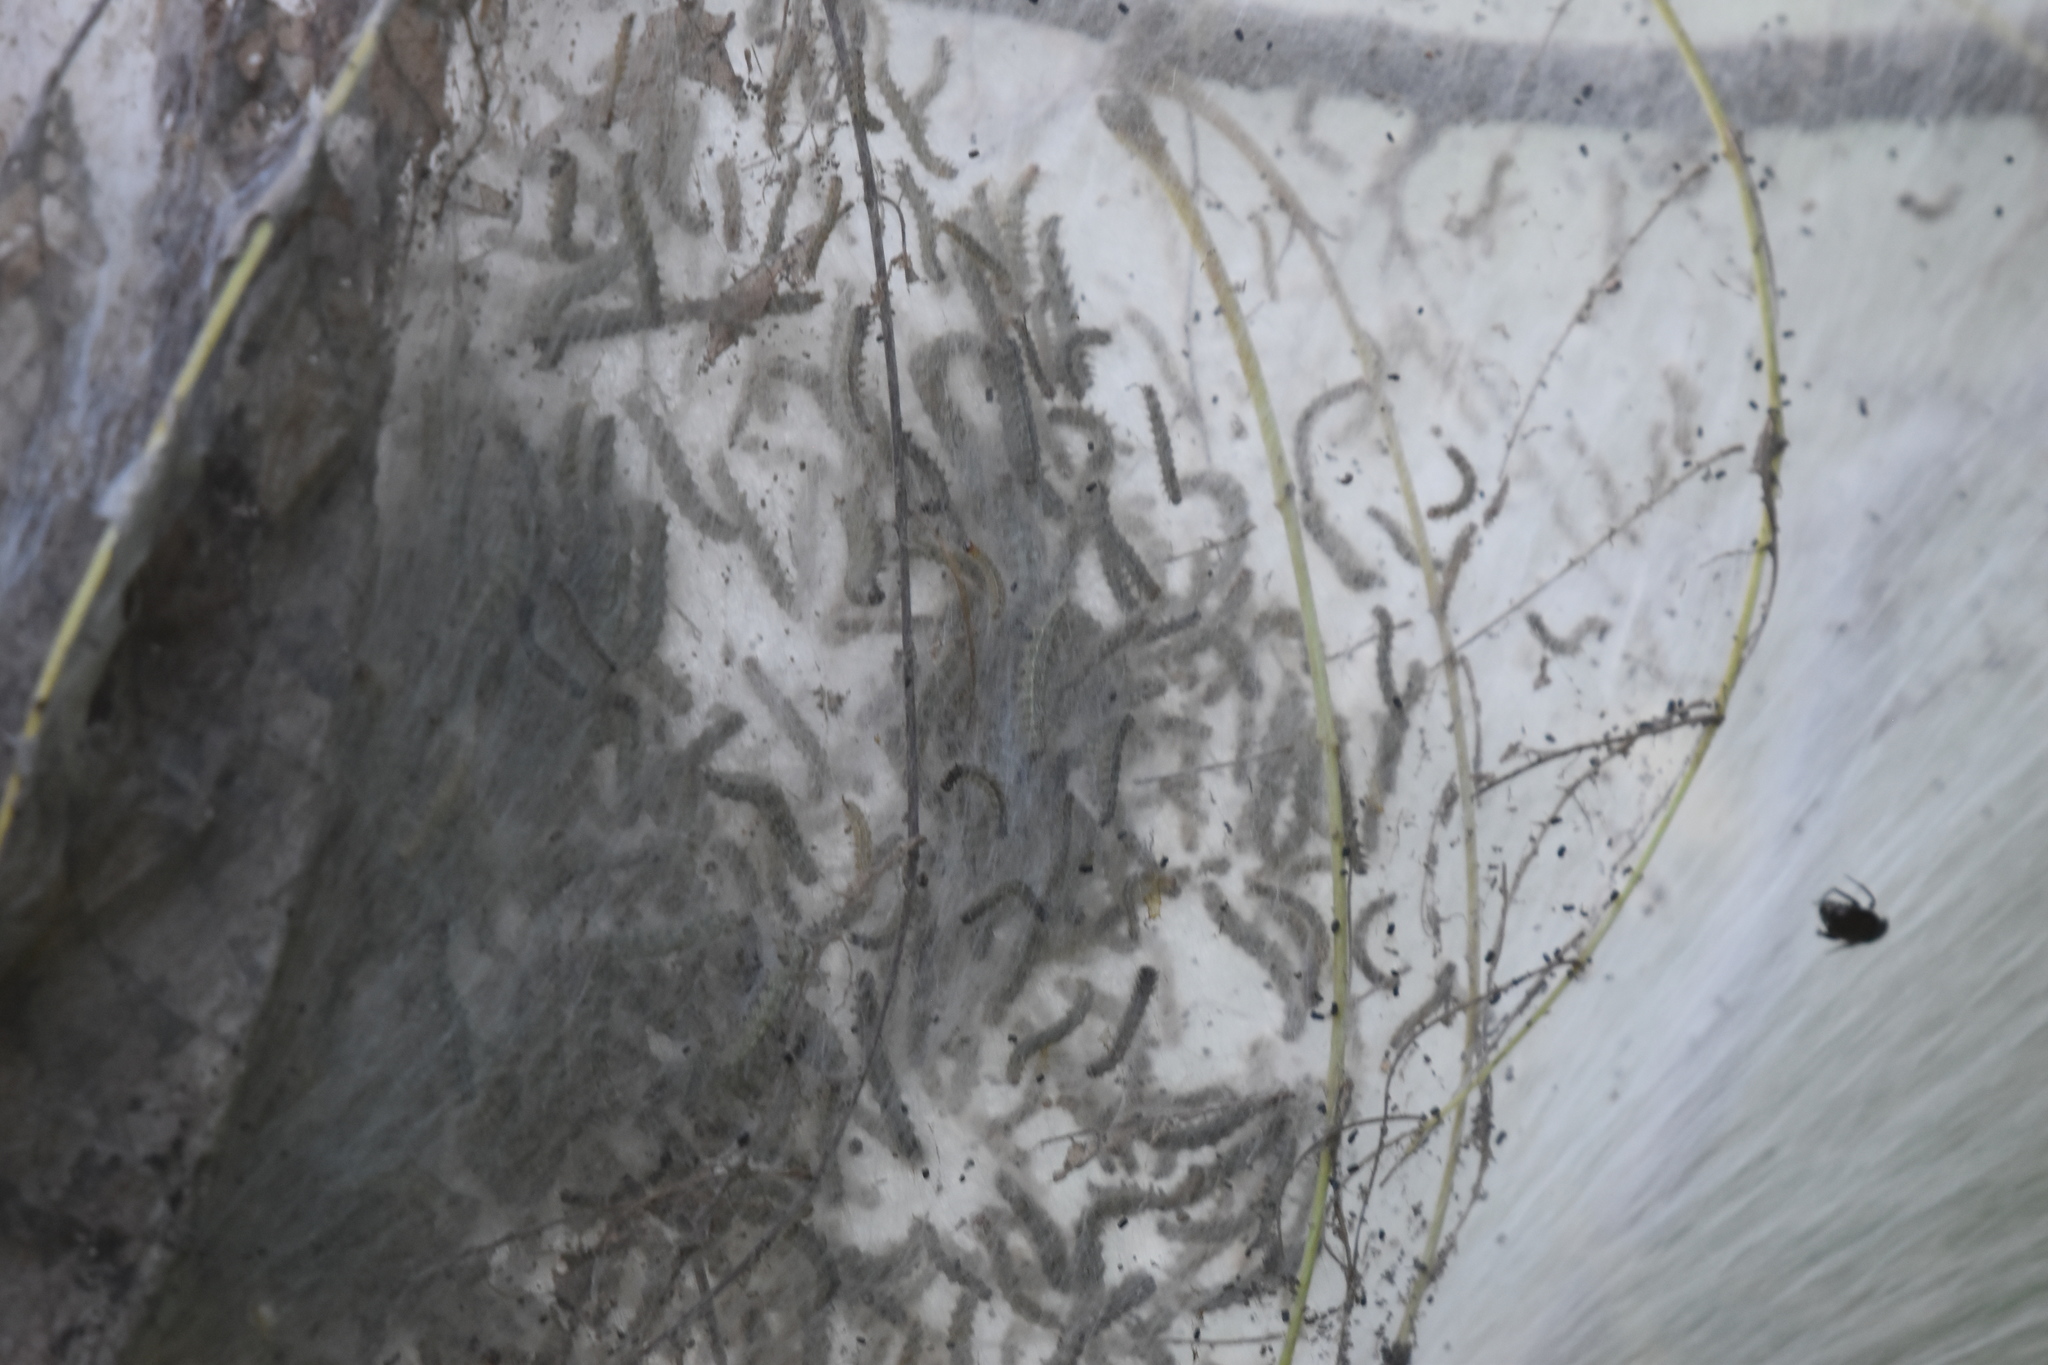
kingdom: Animalia
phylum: Arthropoda
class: Insecta
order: Lepidoptera
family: Erebidae
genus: Hyphantria
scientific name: Hyphantria cunea
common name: American white moth
